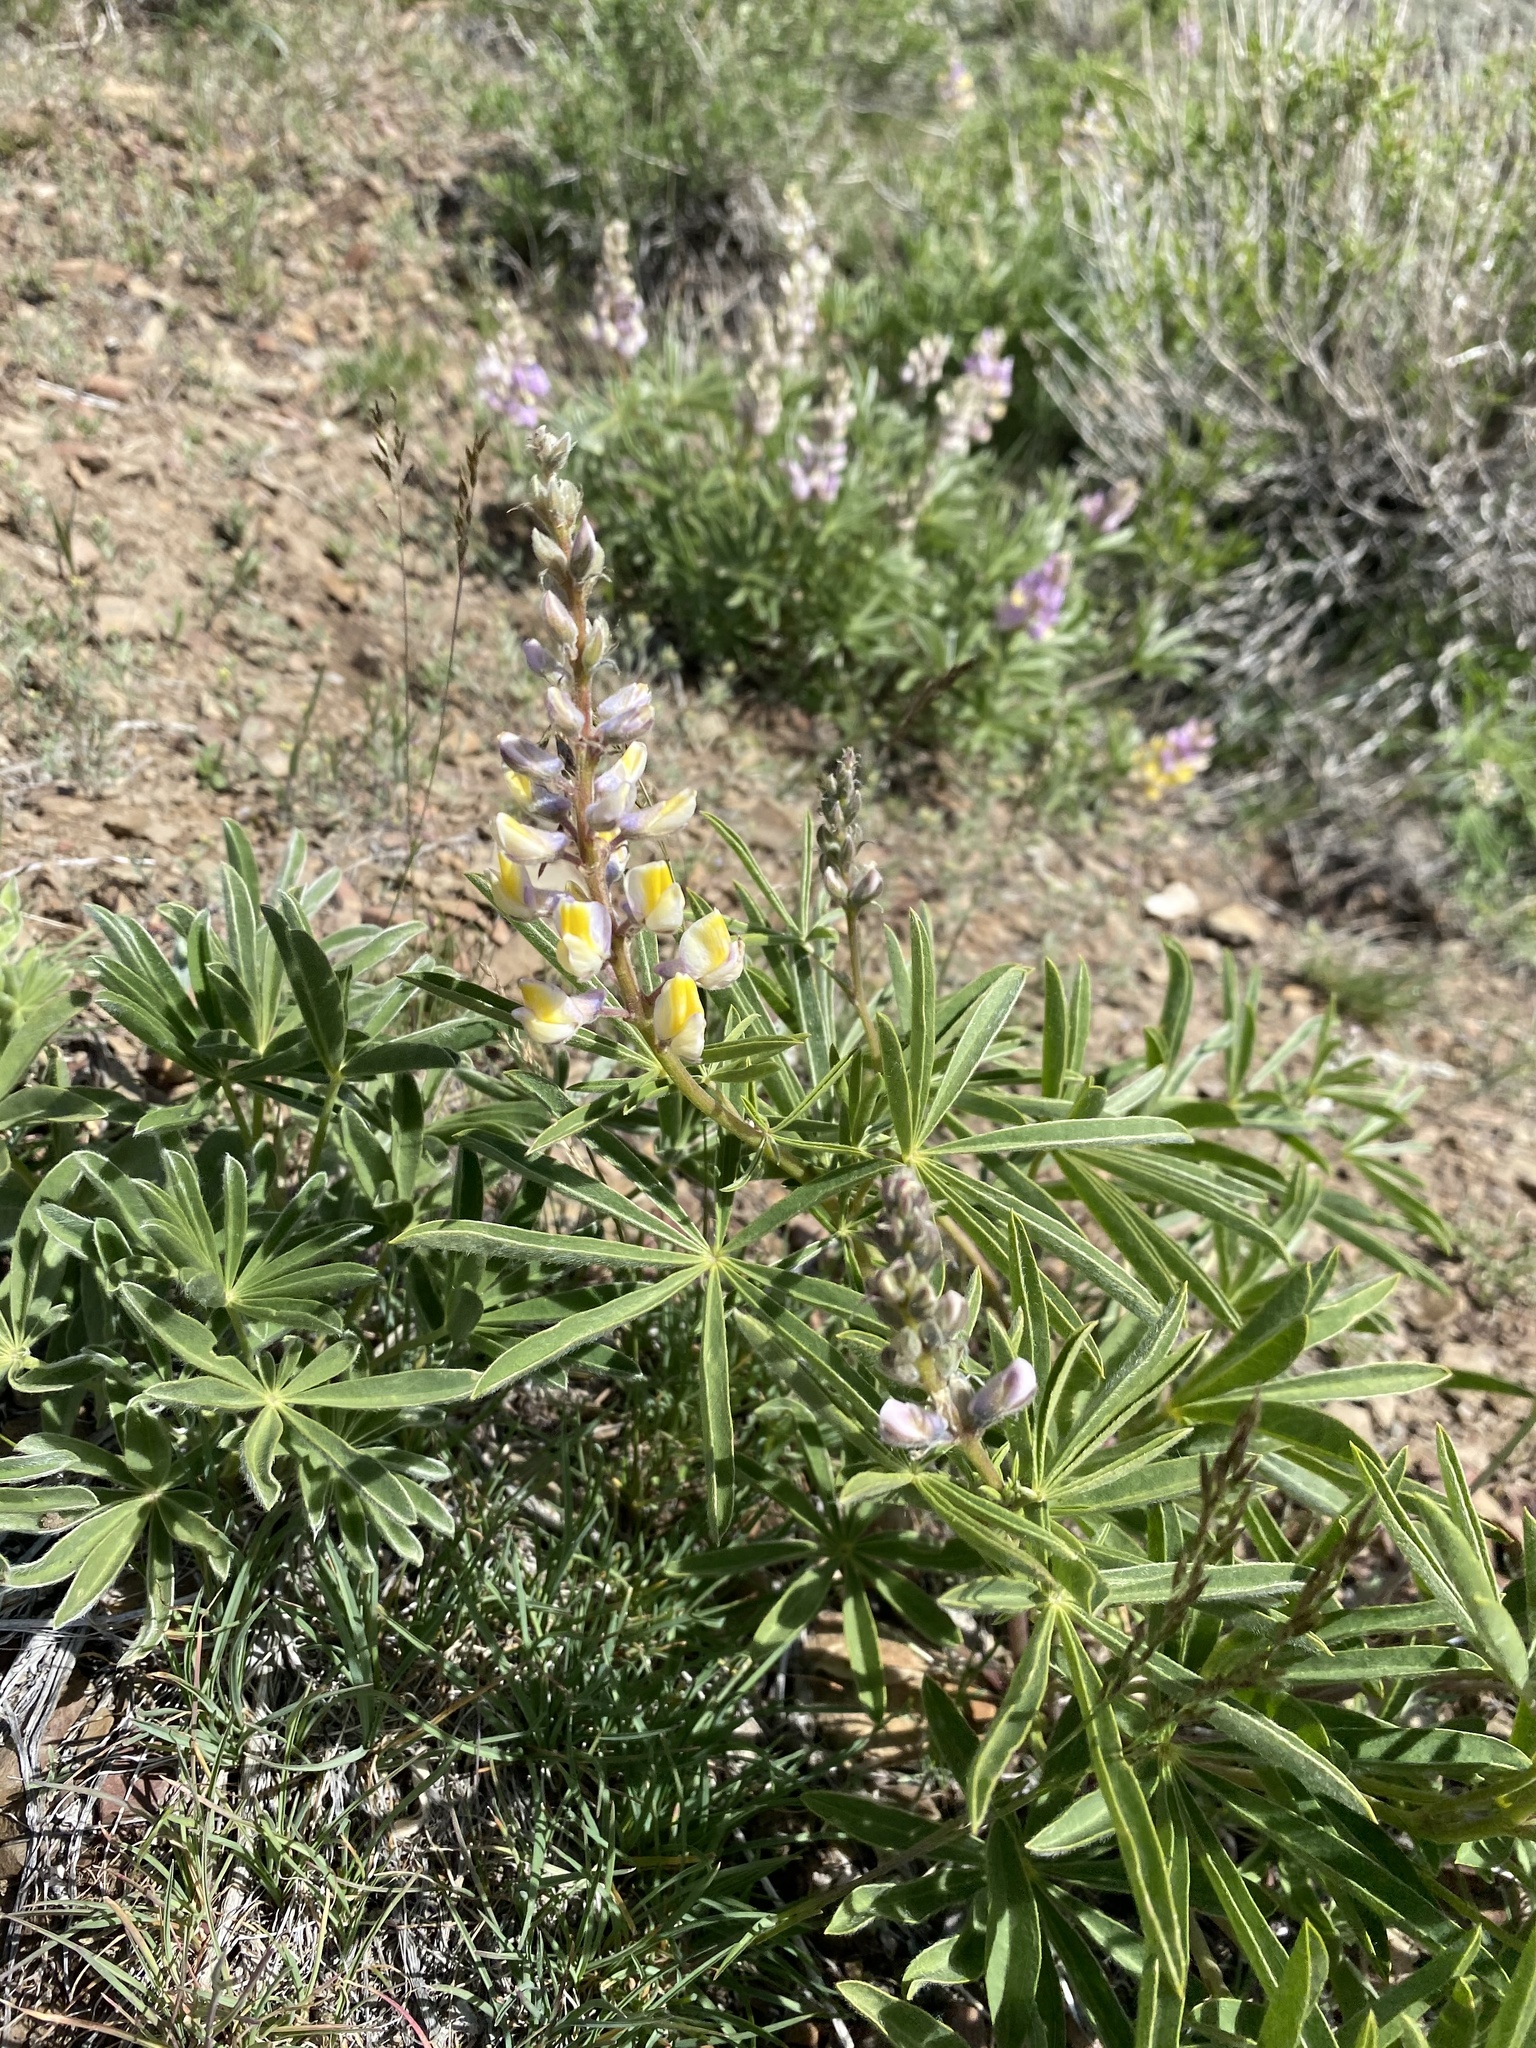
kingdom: Plantae
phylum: Tracheophyta
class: Magnoliopsida
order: Fabales
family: Fabaceae
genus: Lupinus
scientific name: Lupinus arbustus
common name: Montana lupine
